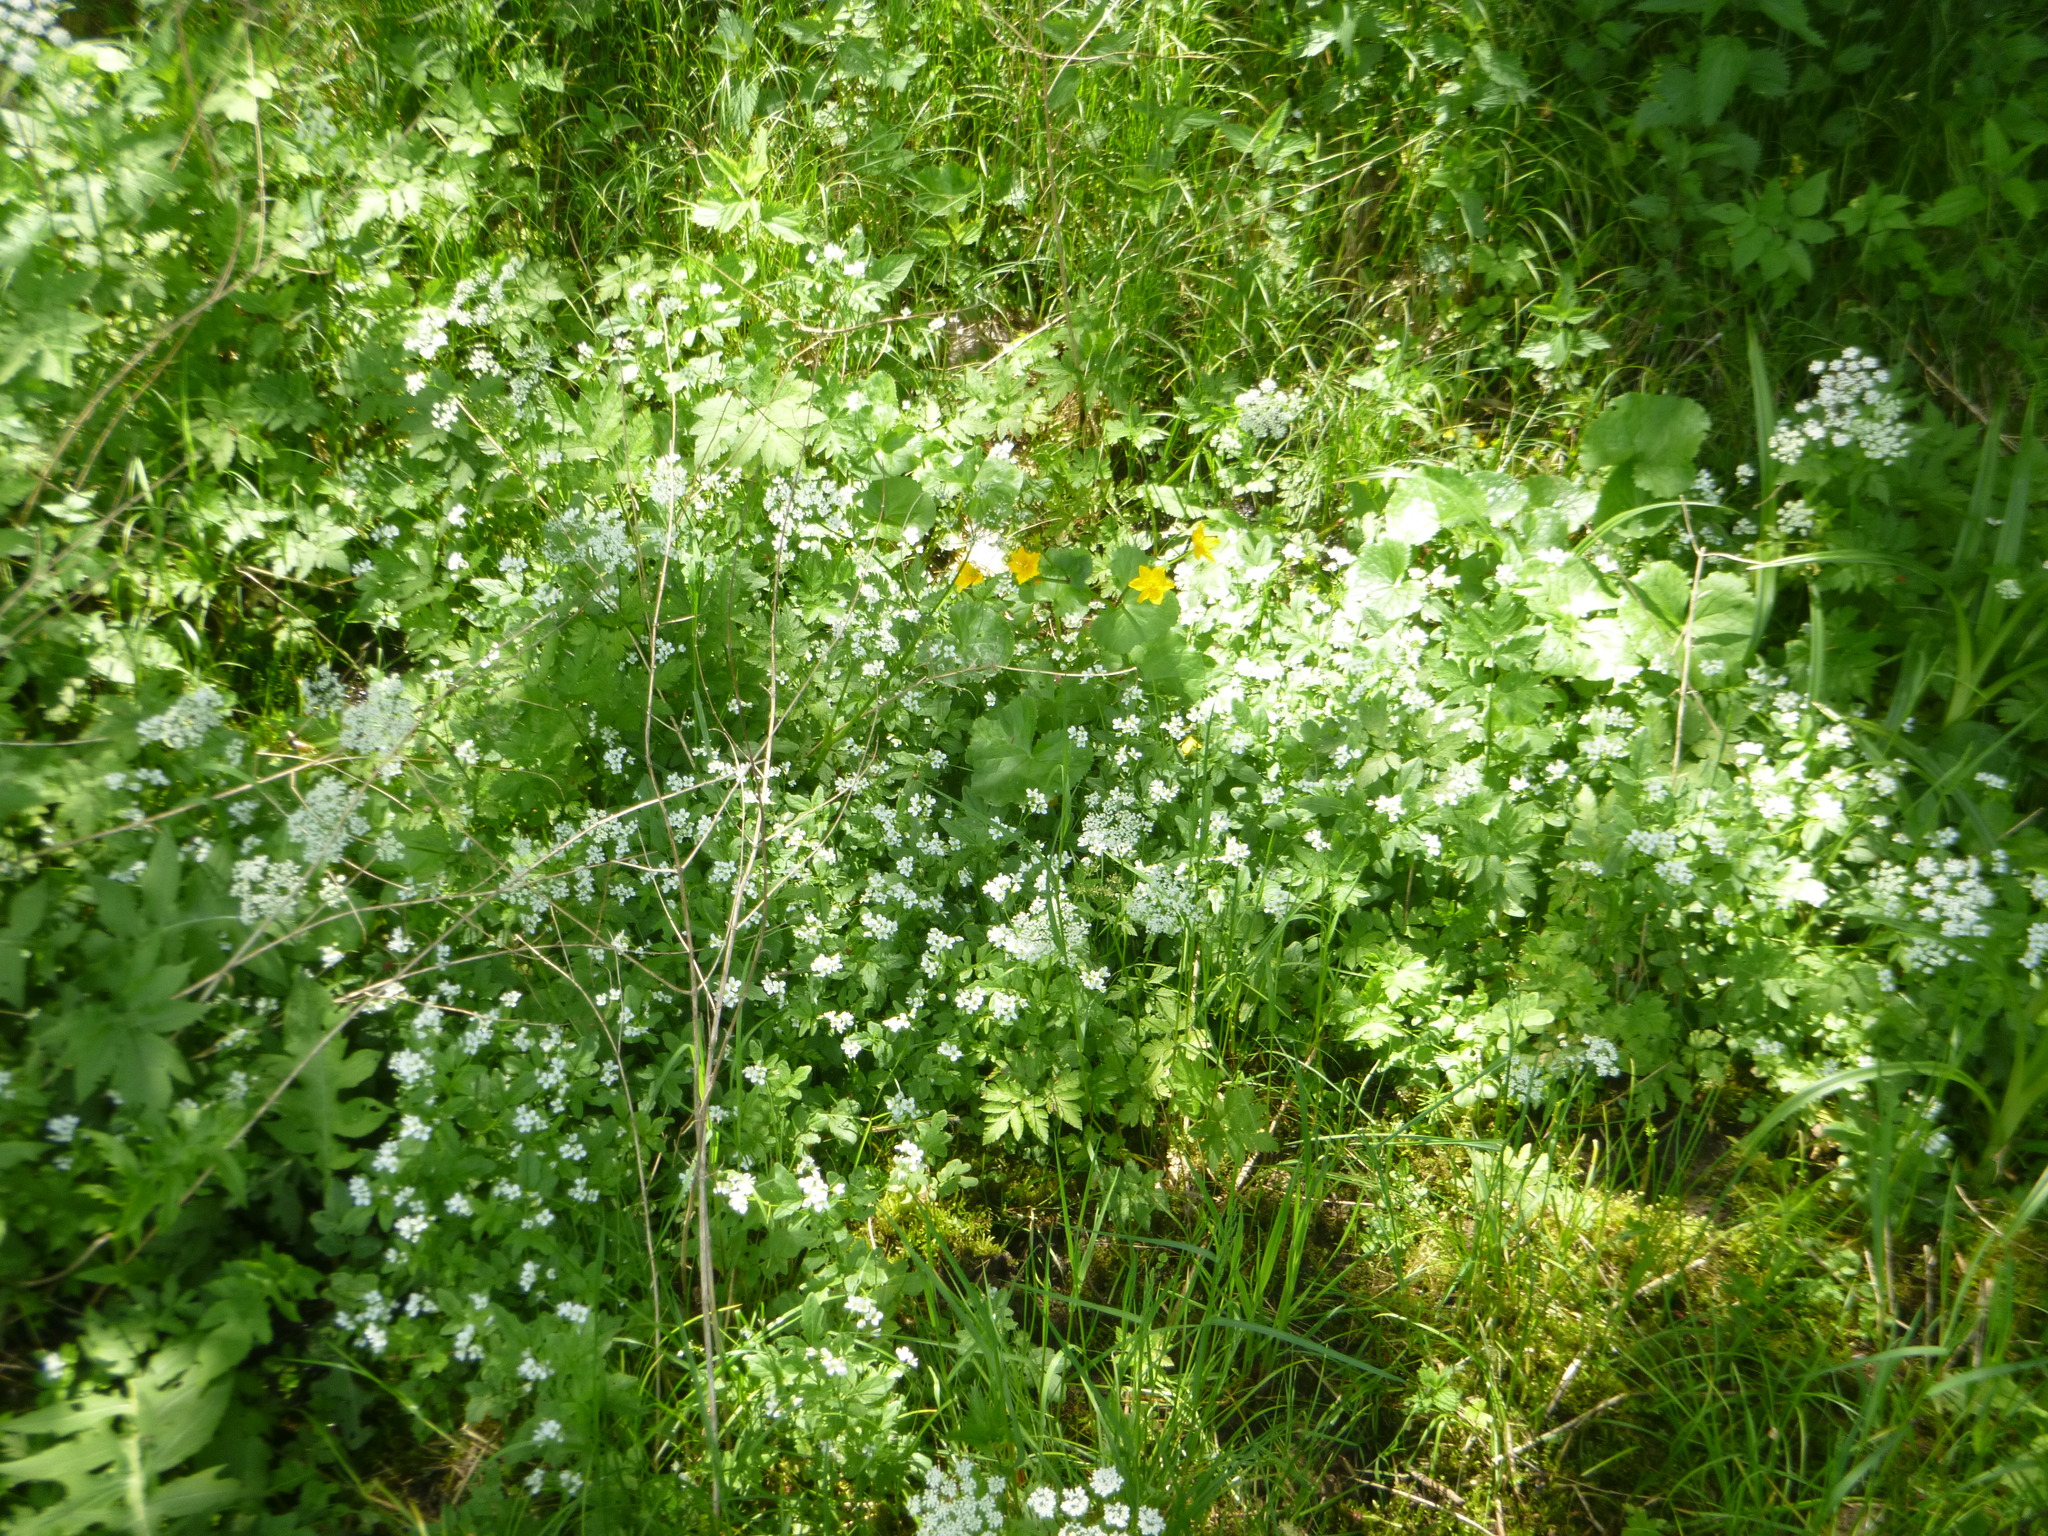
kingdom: Plantae
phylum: Tracheophyta
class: Magnoliopsida
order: Ranunculales
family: Ranunculaceae
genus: Caltha
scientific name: Caltha palustris
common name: Marsh marigold
